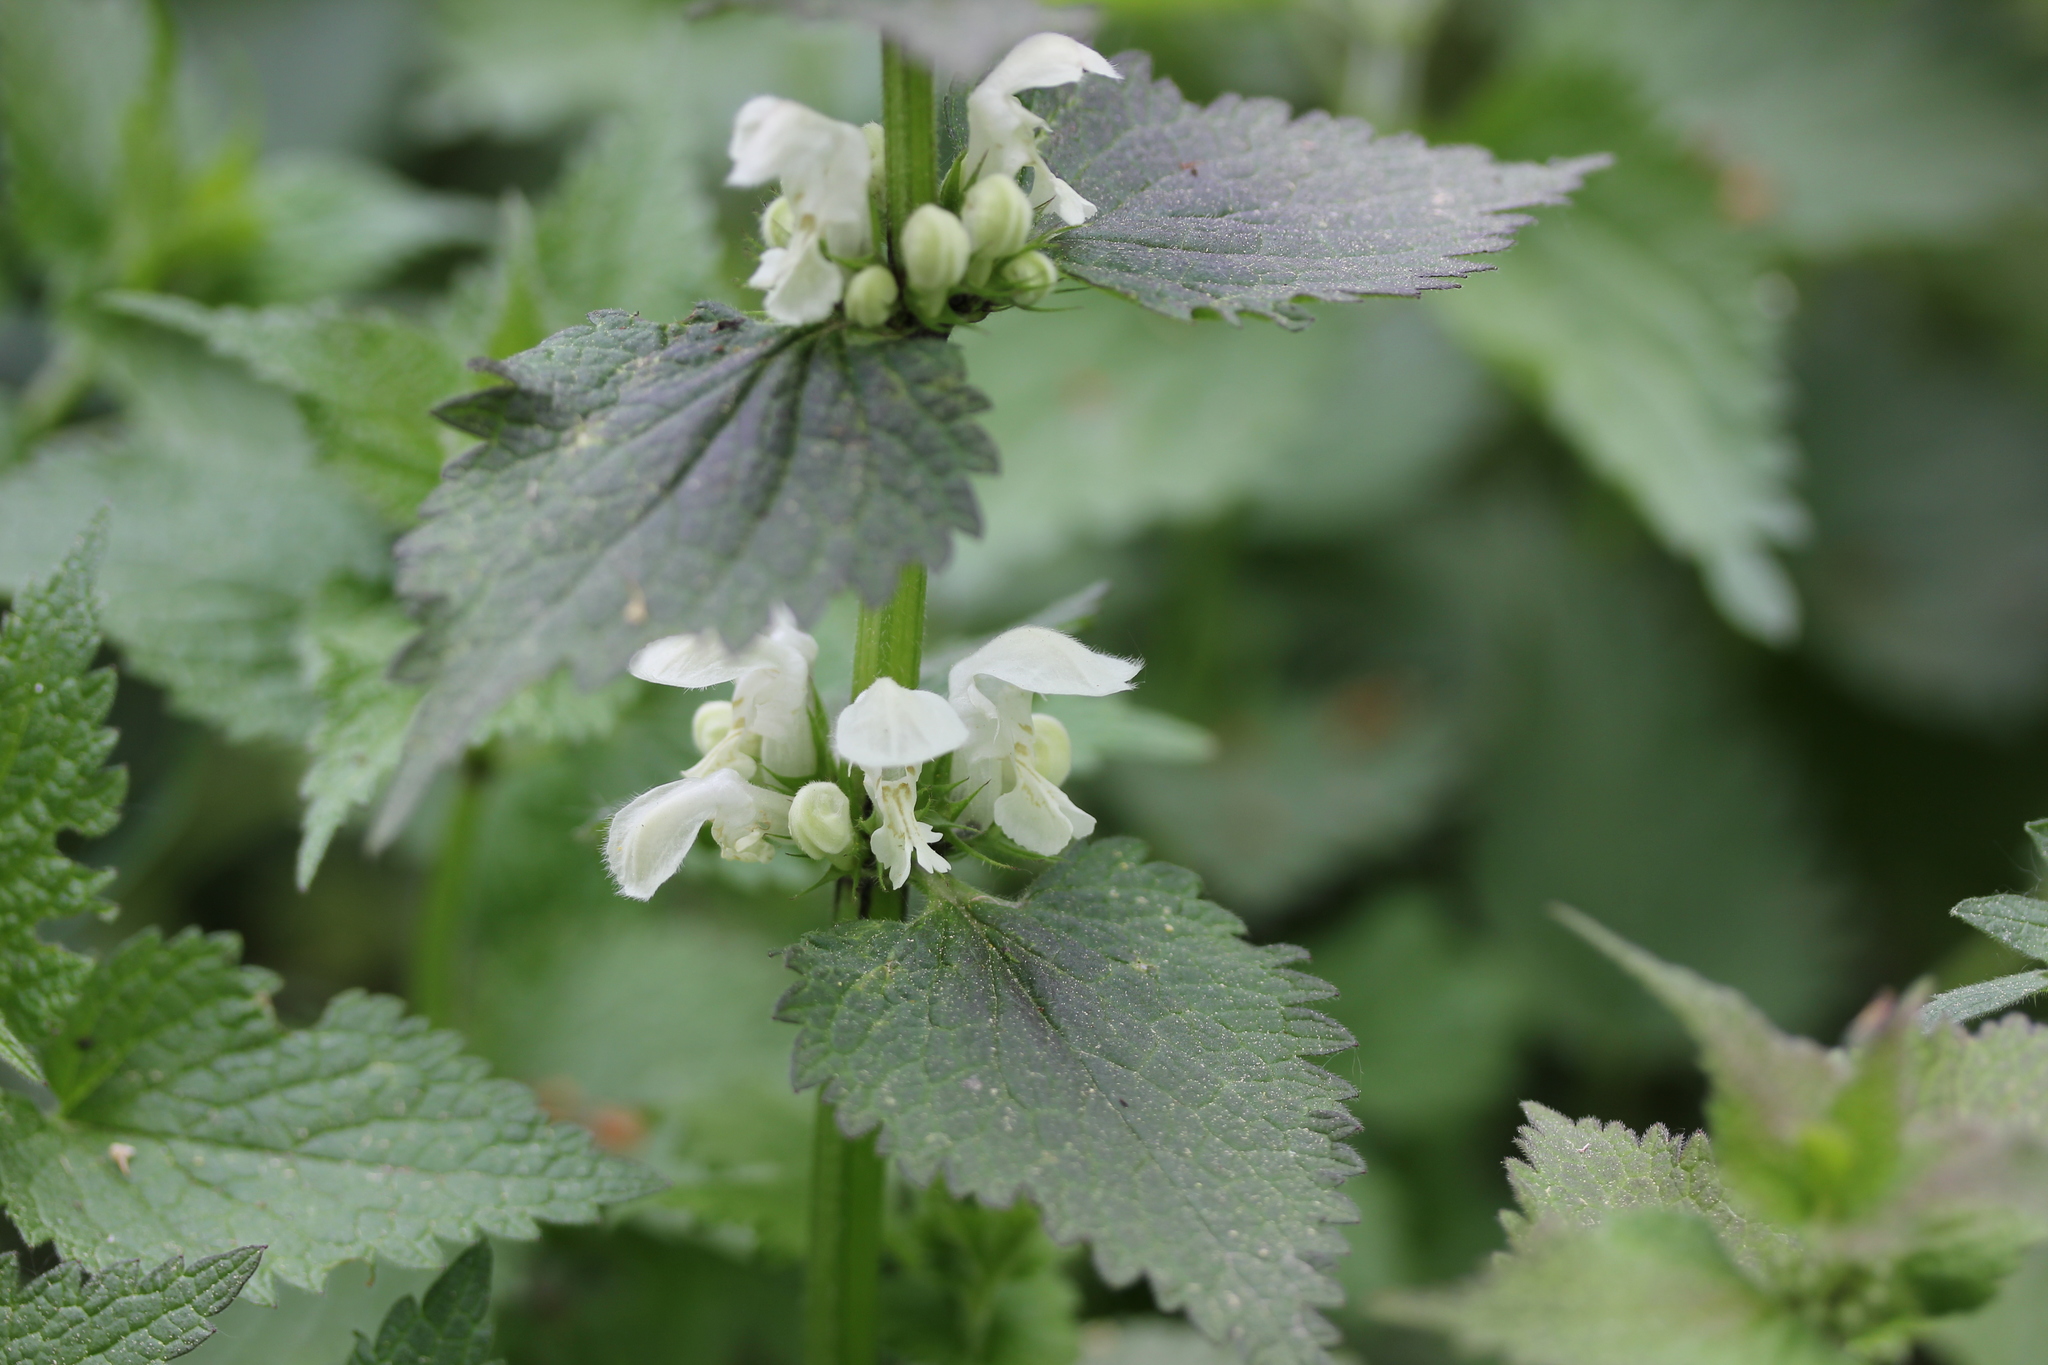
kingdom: Plantae
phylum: Tracheophyta
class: Magnoliopsida
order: Lamiales
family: Lamiaceae
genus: Lamium
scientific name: Lamium album
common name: White dead-nettle
